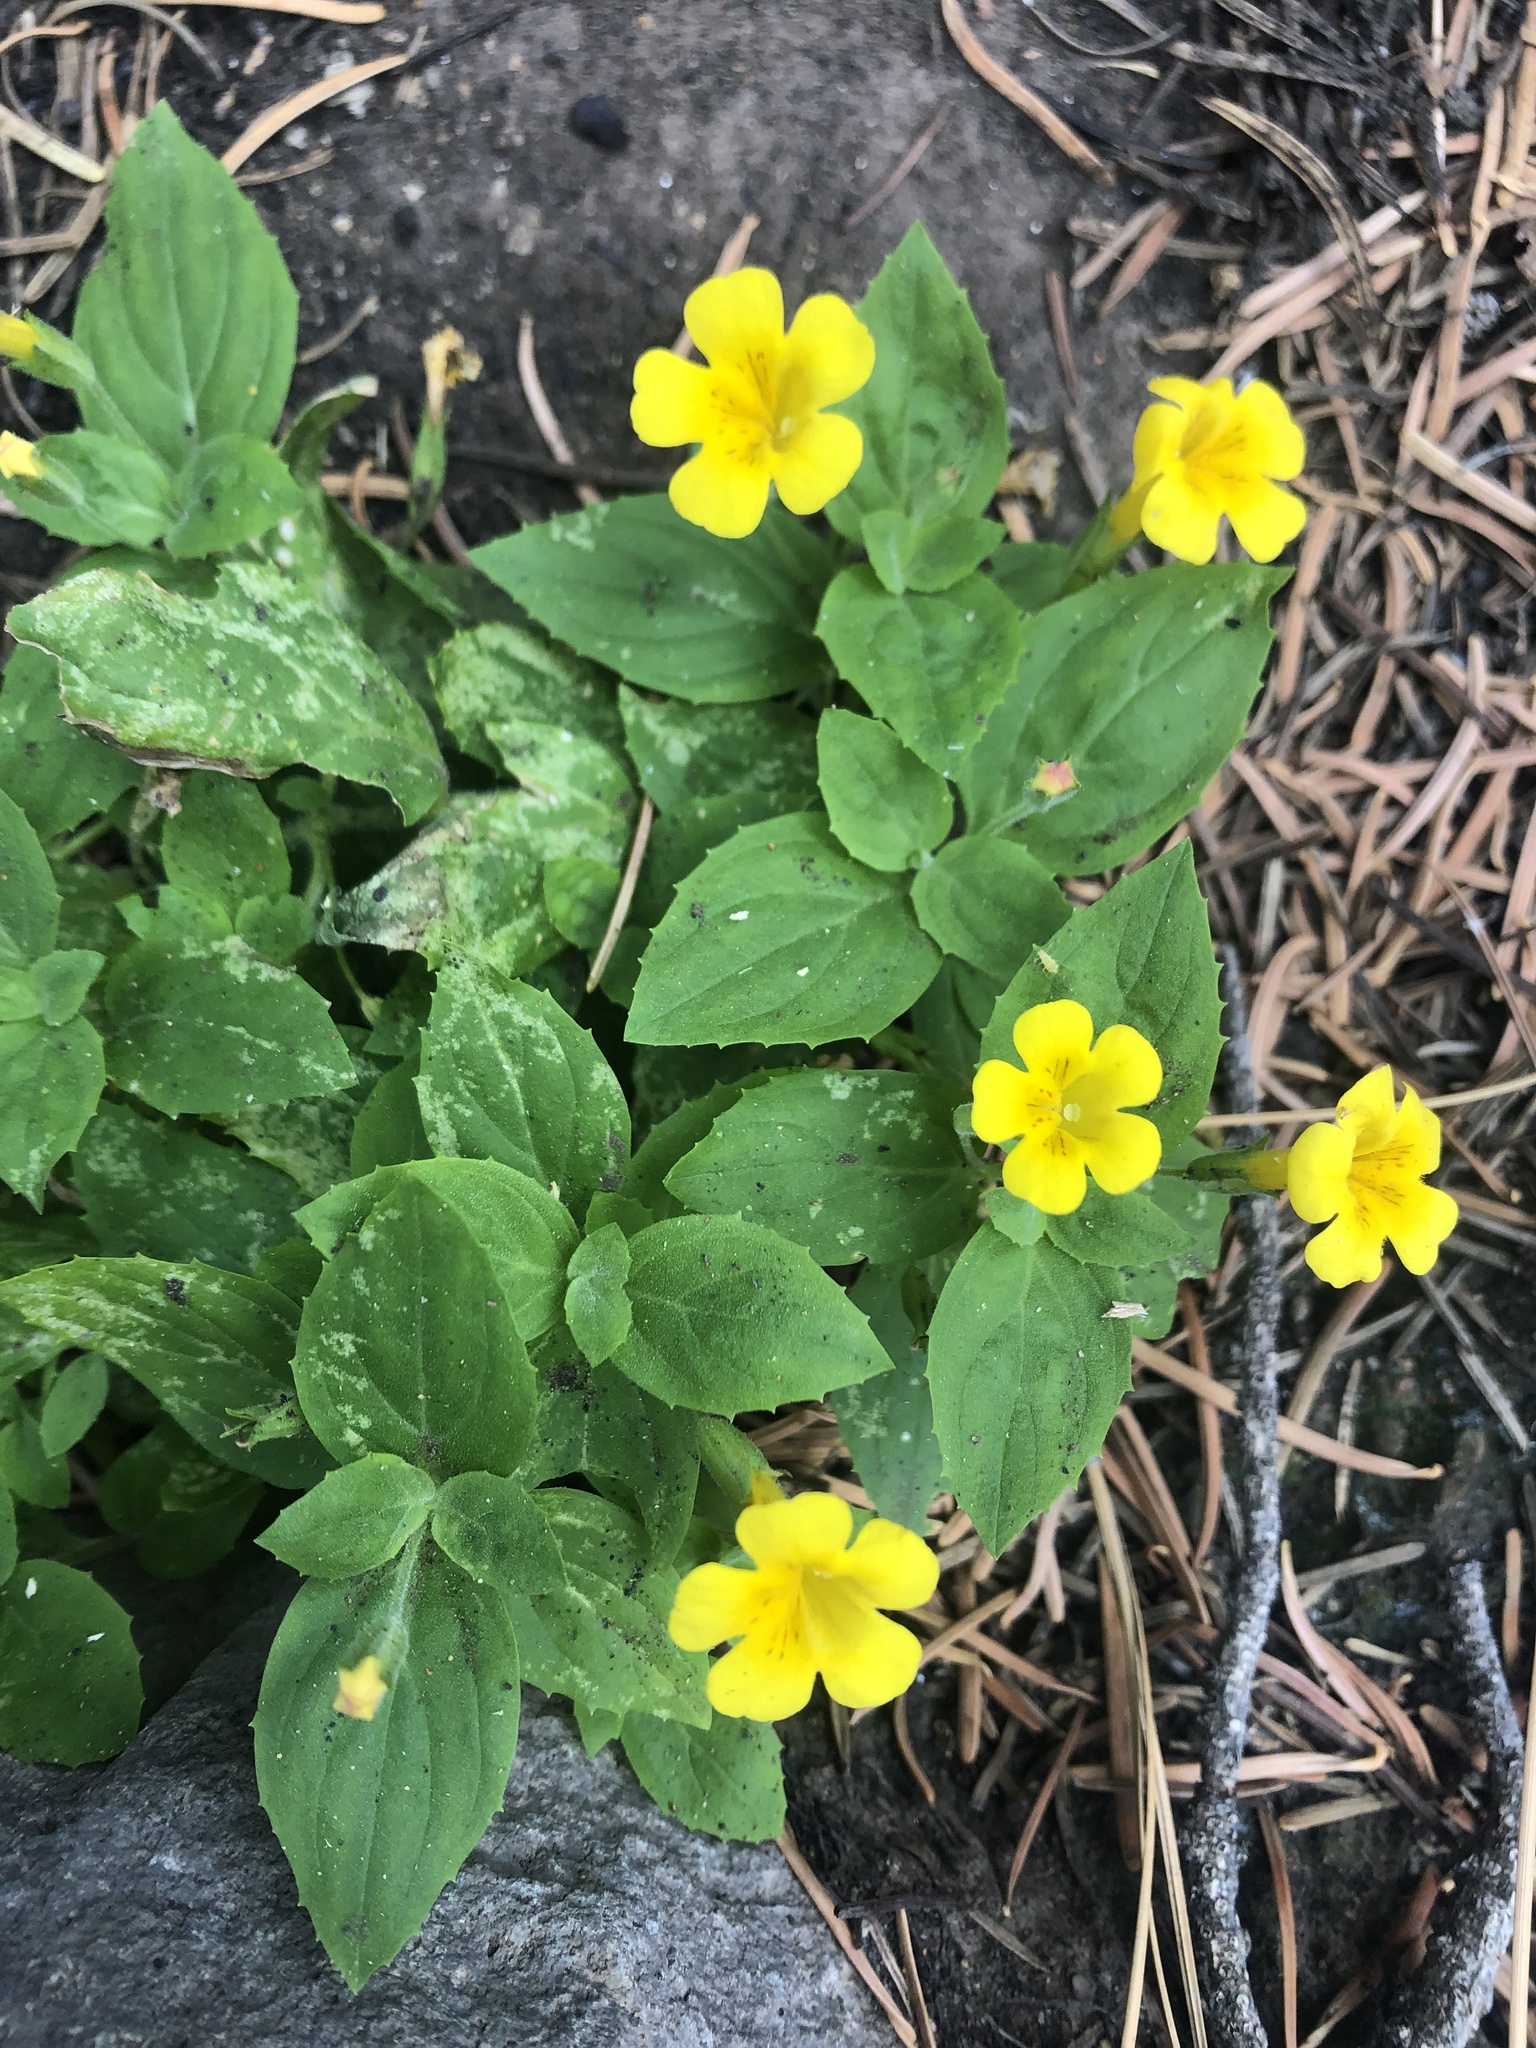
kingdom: Plantae
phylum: Tracheophyta
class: Magnoliopsida
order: Lamiales
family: Phrymaceae
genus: Erythranthe
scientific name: Erythranthe moschata
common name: Muskflower
